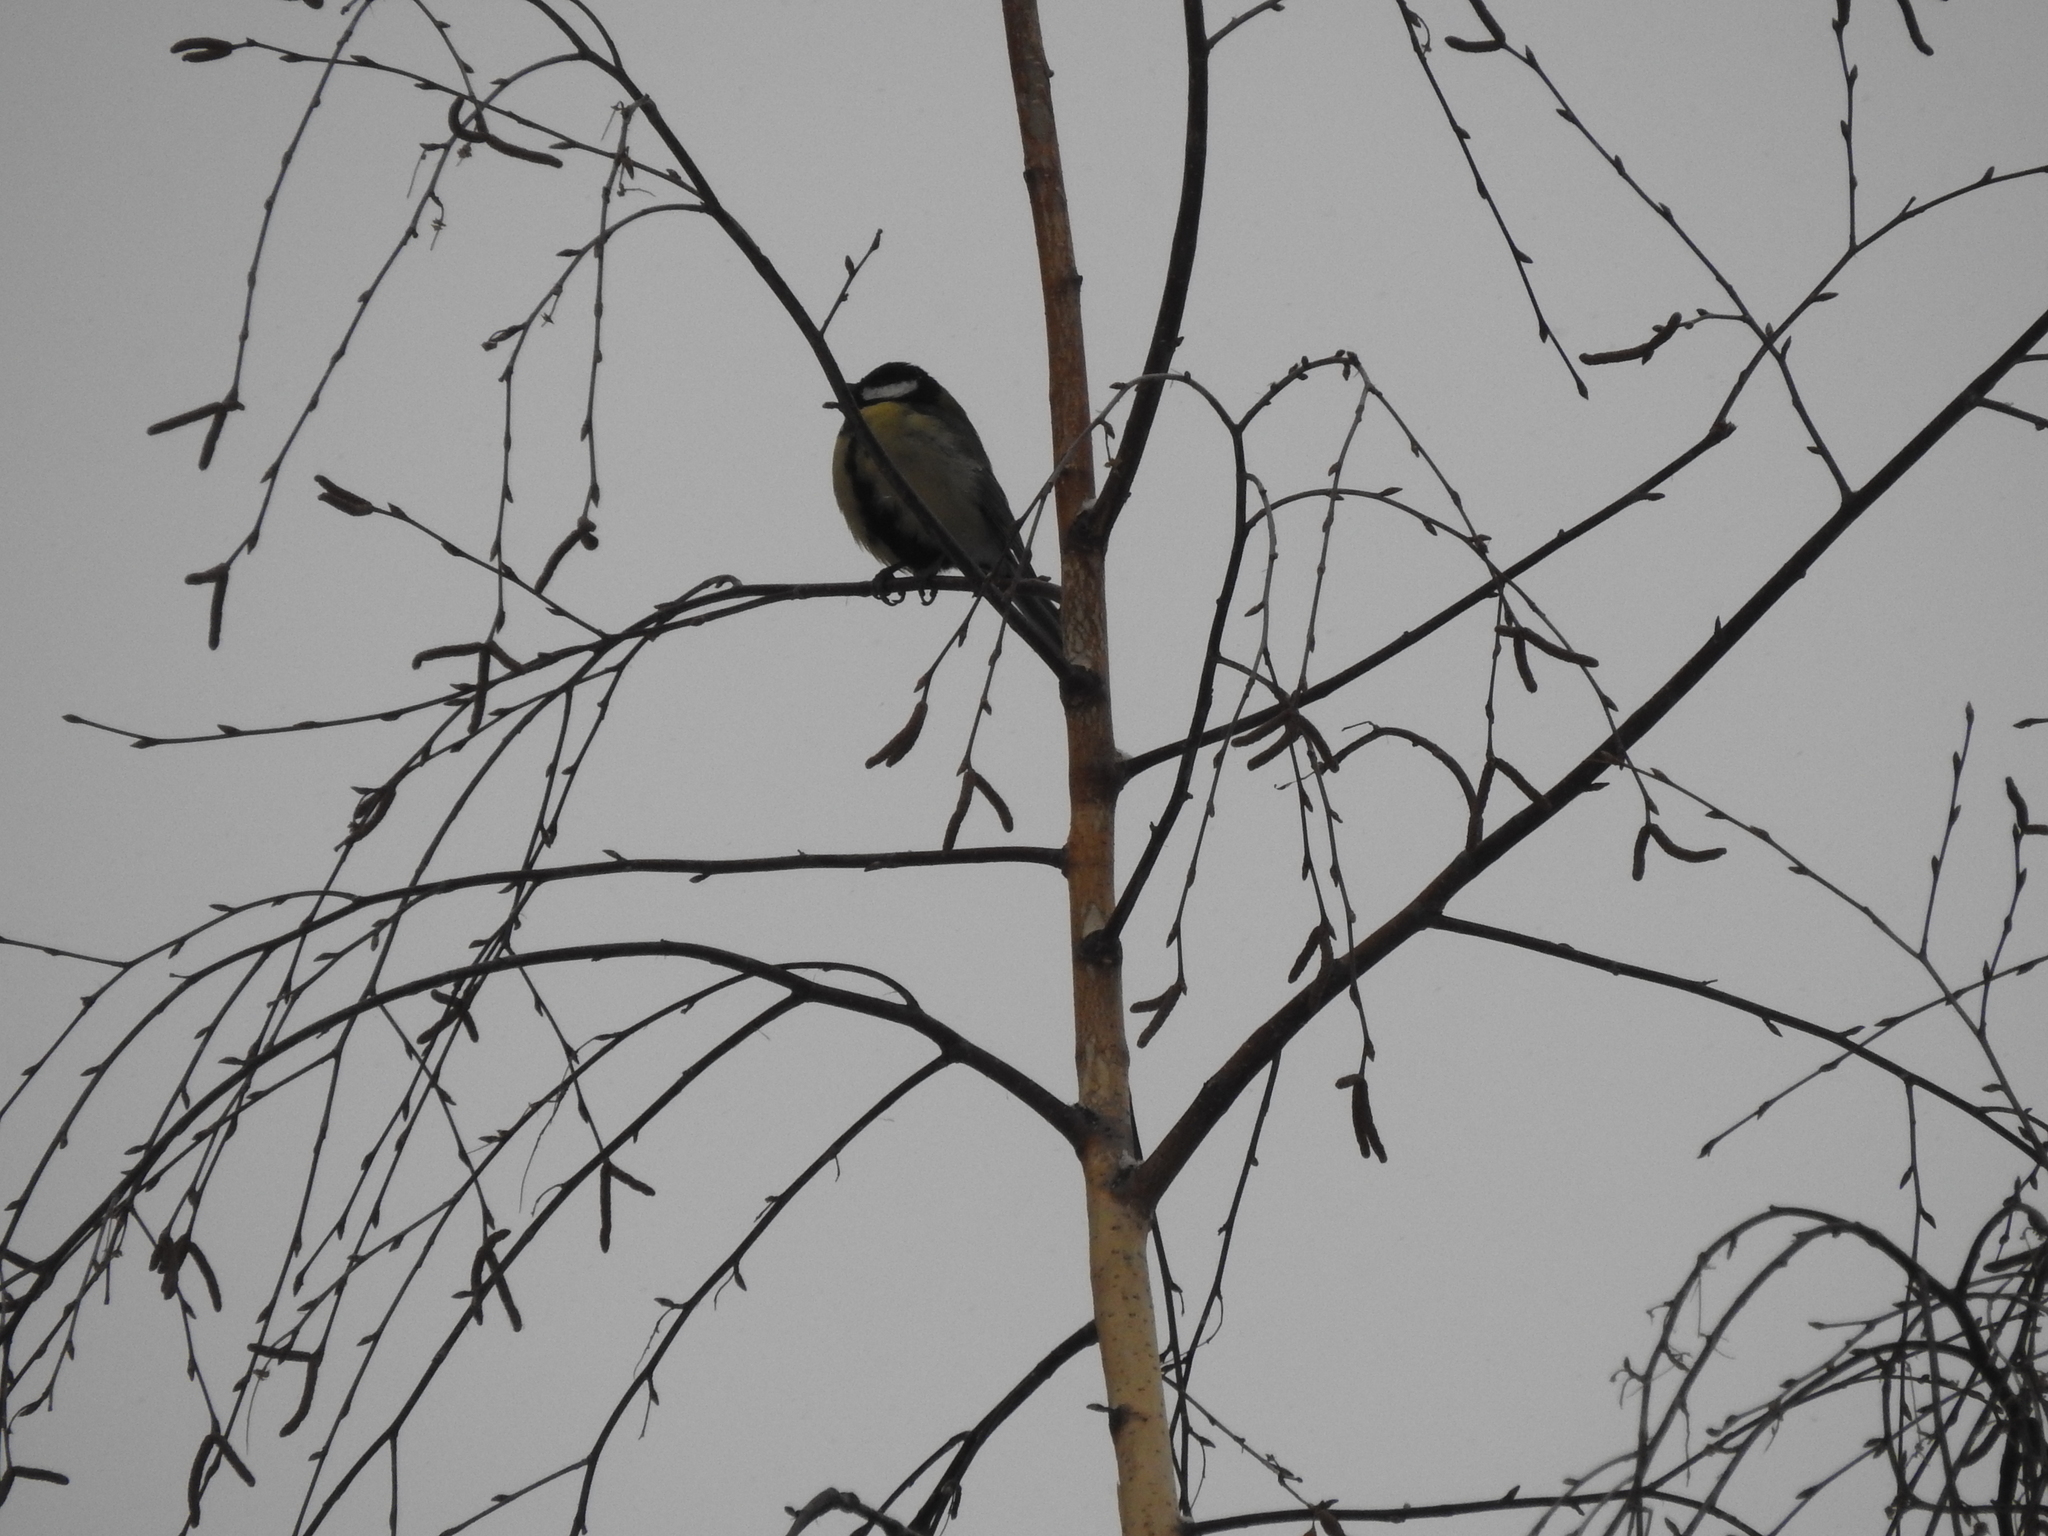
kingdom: Animalia
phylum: Chordata
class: Aves
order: Passeriformes
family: Paridae
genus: Parus
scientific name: Parus major
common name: Great tit
